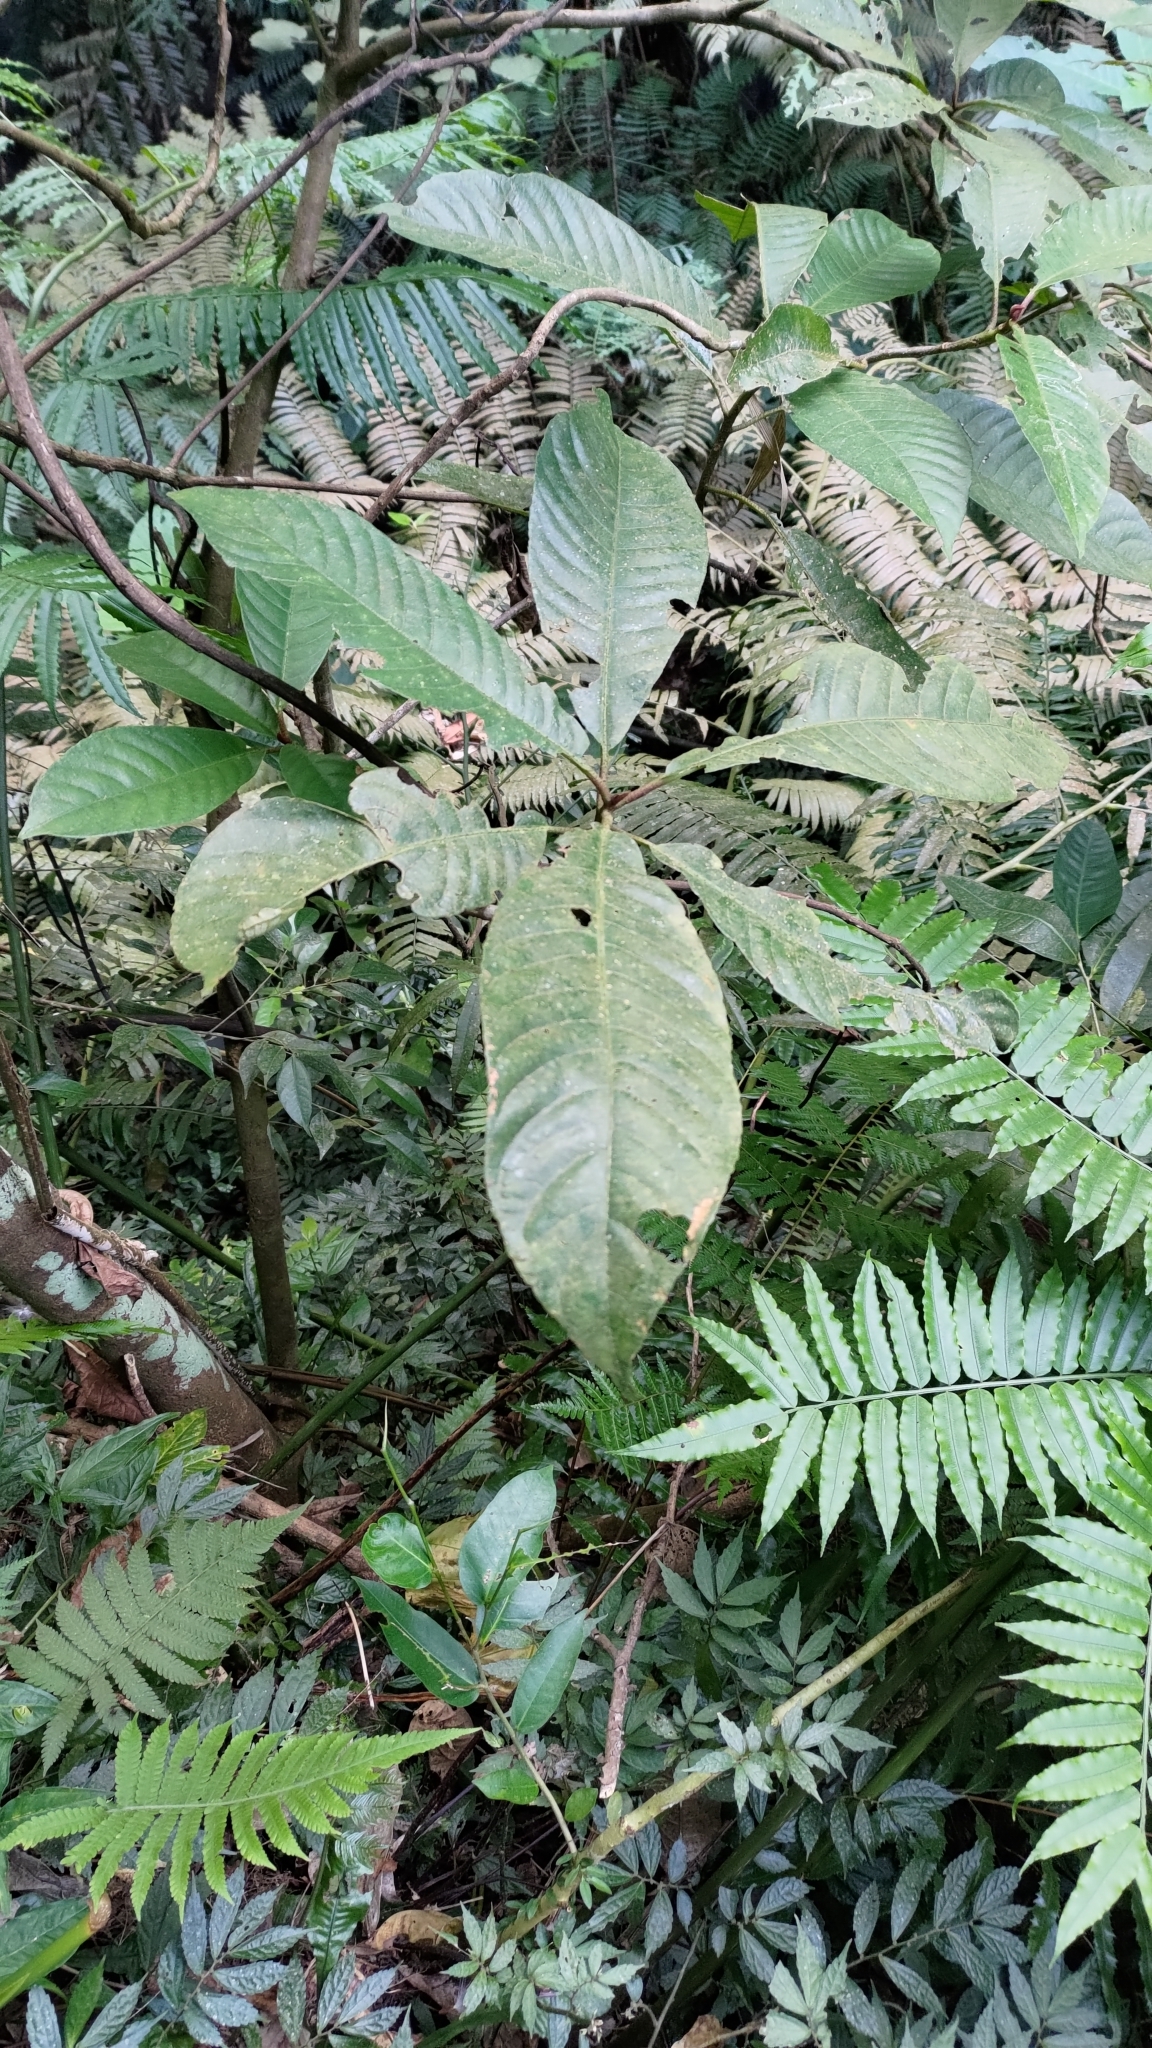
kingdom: Plantae
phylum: Tracheophyta
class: Magnoliopsida
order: Ericales
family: Actinidiaceae
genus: Saurauia
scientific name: Saurauia tristyla
